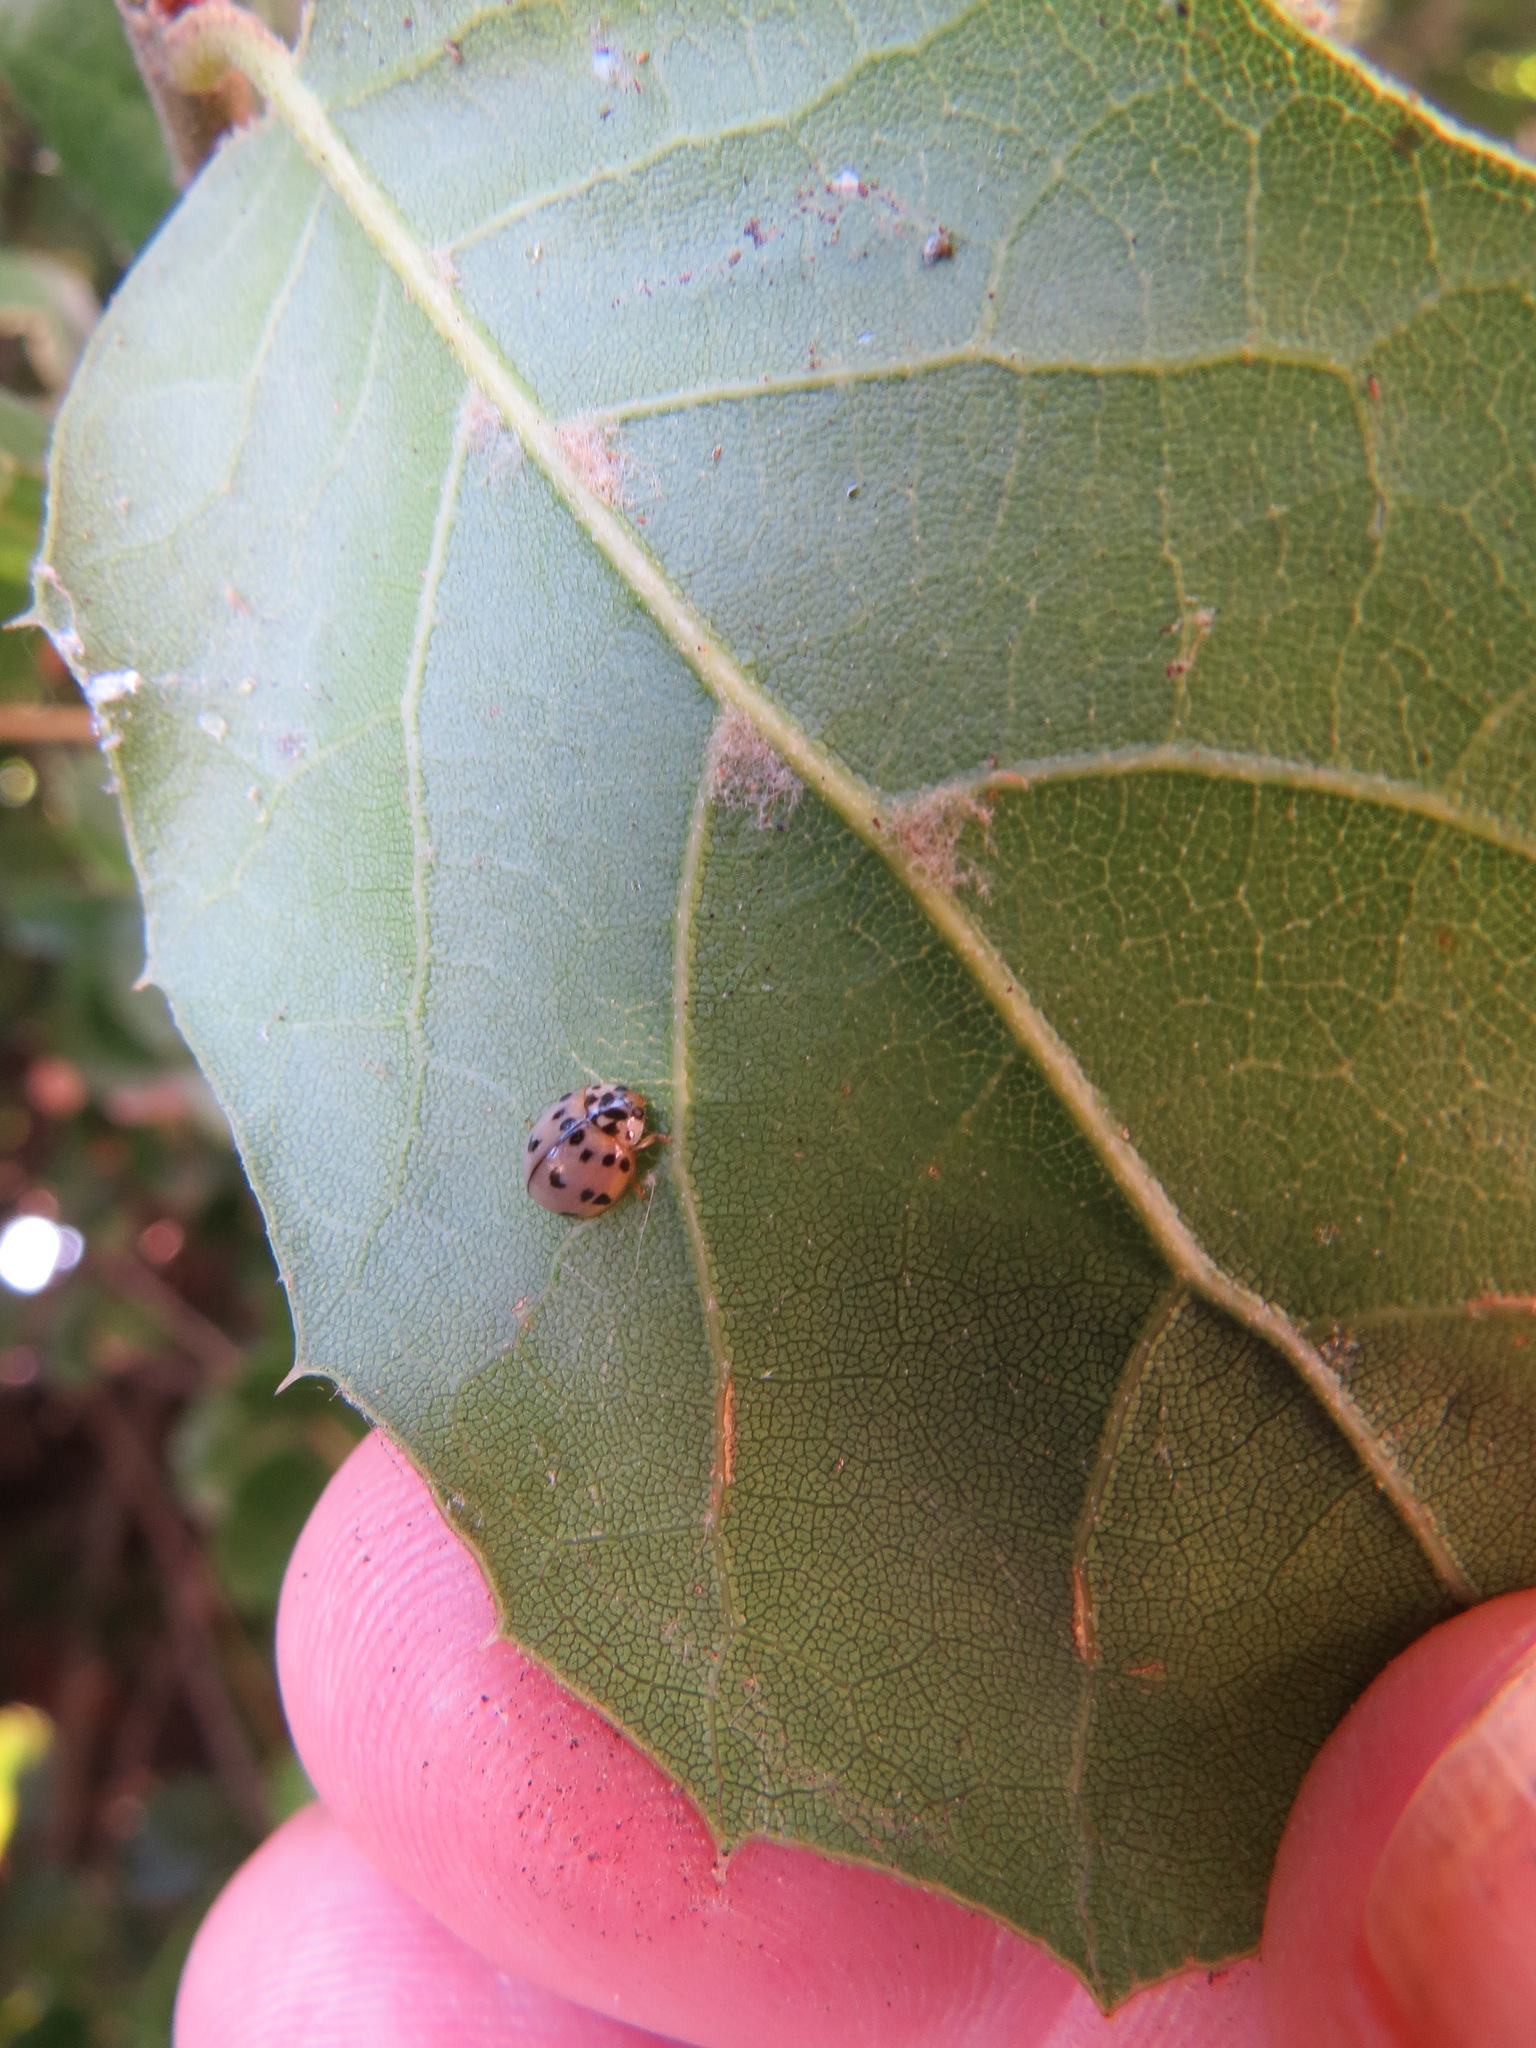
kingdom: Animalia
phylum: Arthropoda
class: Insecta
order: Coleoptera
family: Coccinellidae
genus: Olla
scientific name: Olla v-nigrum
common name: Ashy gray lady beetle
